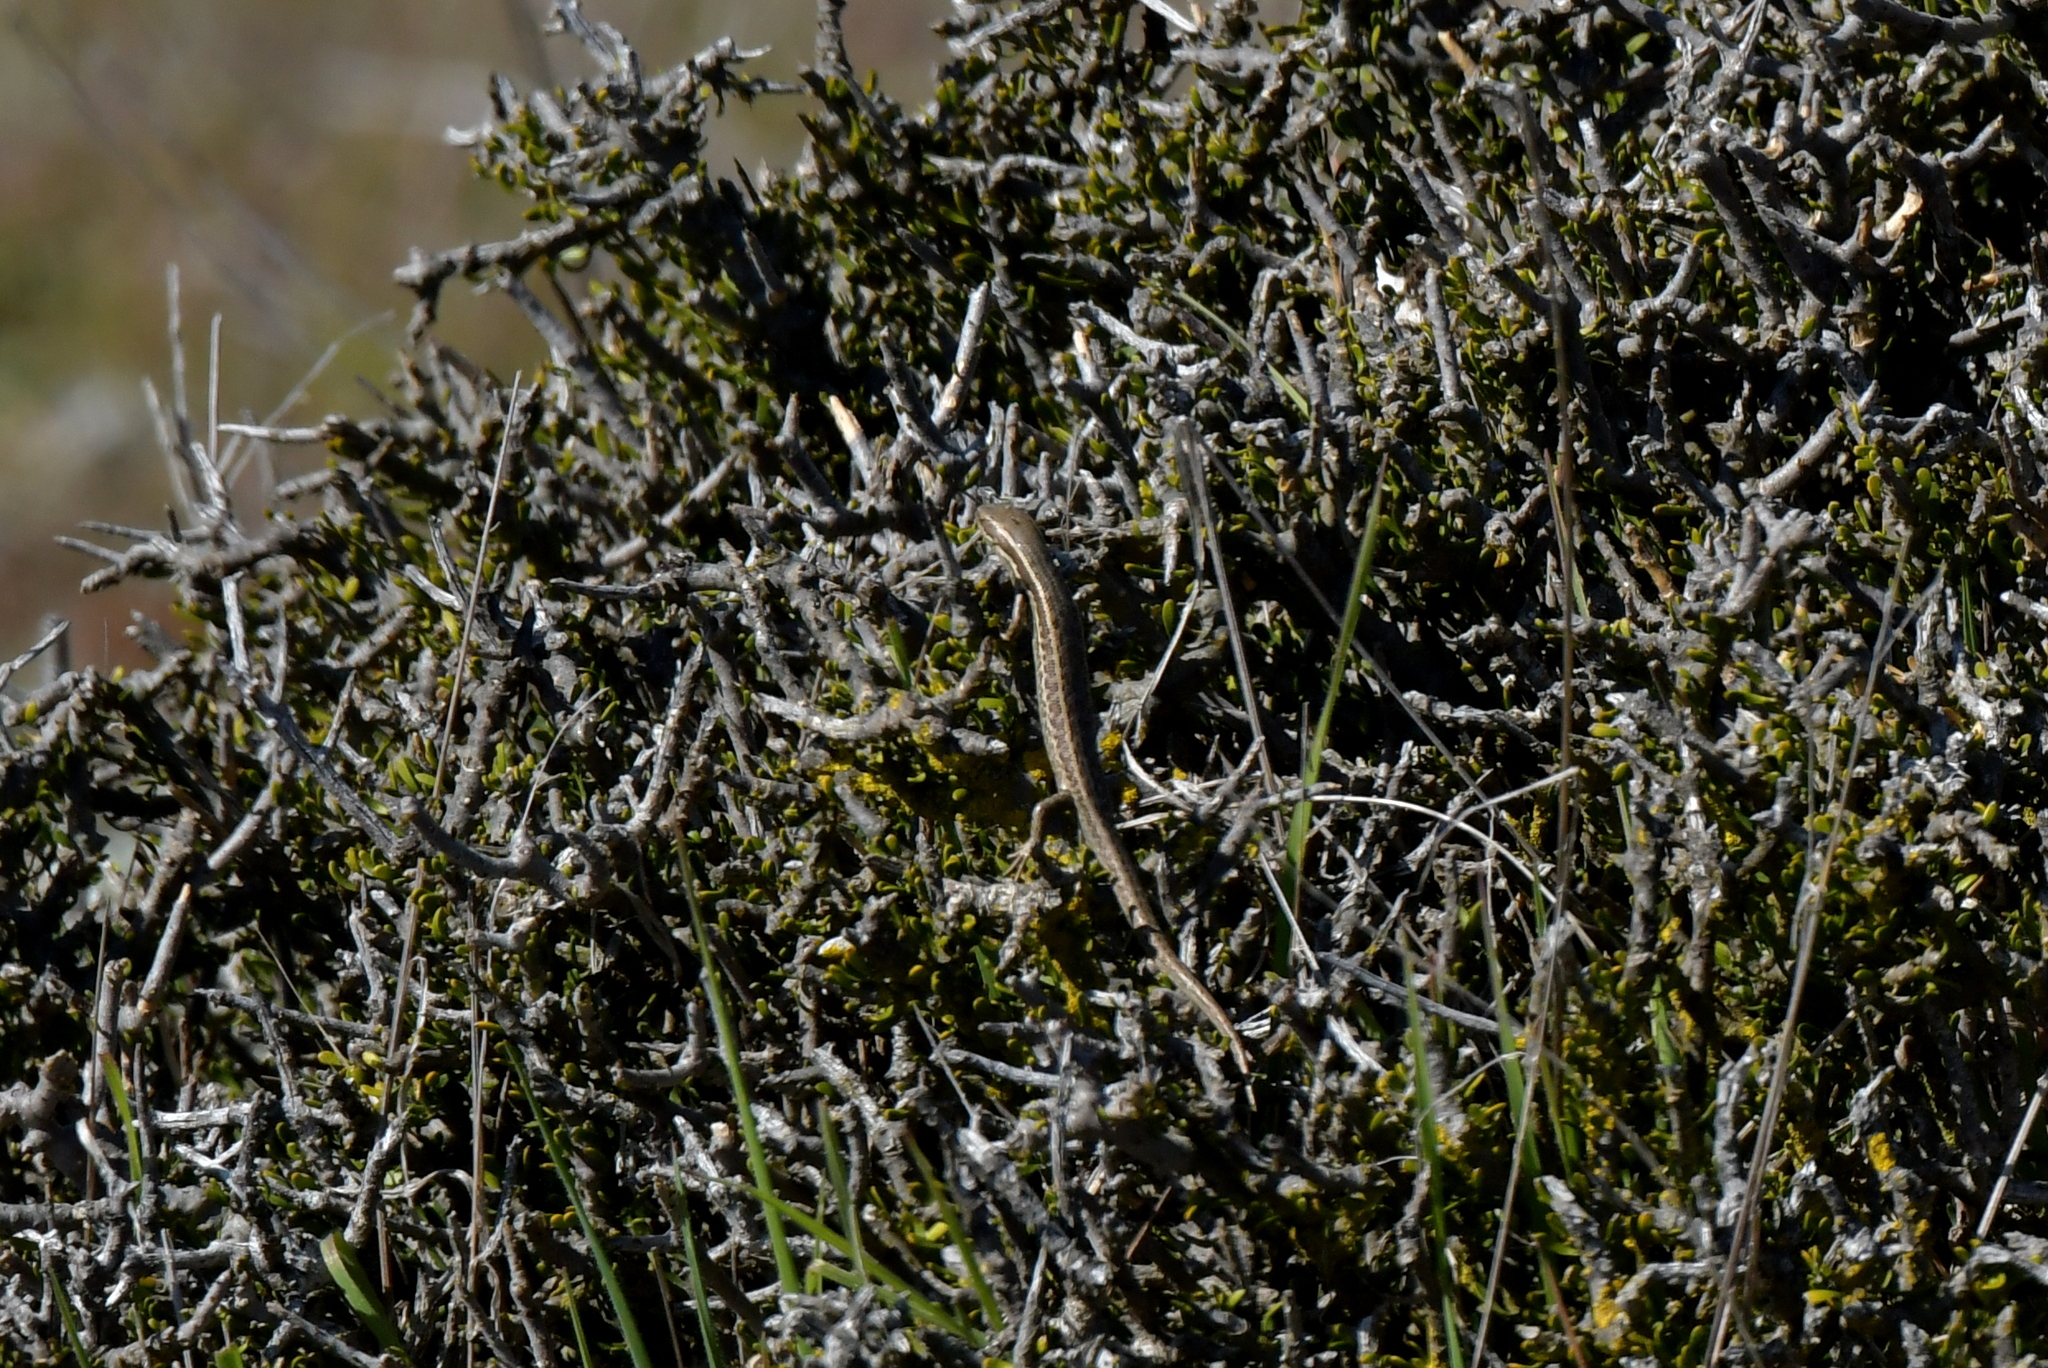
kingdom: Animalia
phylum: Chordata
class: Squamata
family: Scincidae
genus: Oligosoma
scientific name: Oligosoma maccanni
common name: Mccann’s skink
